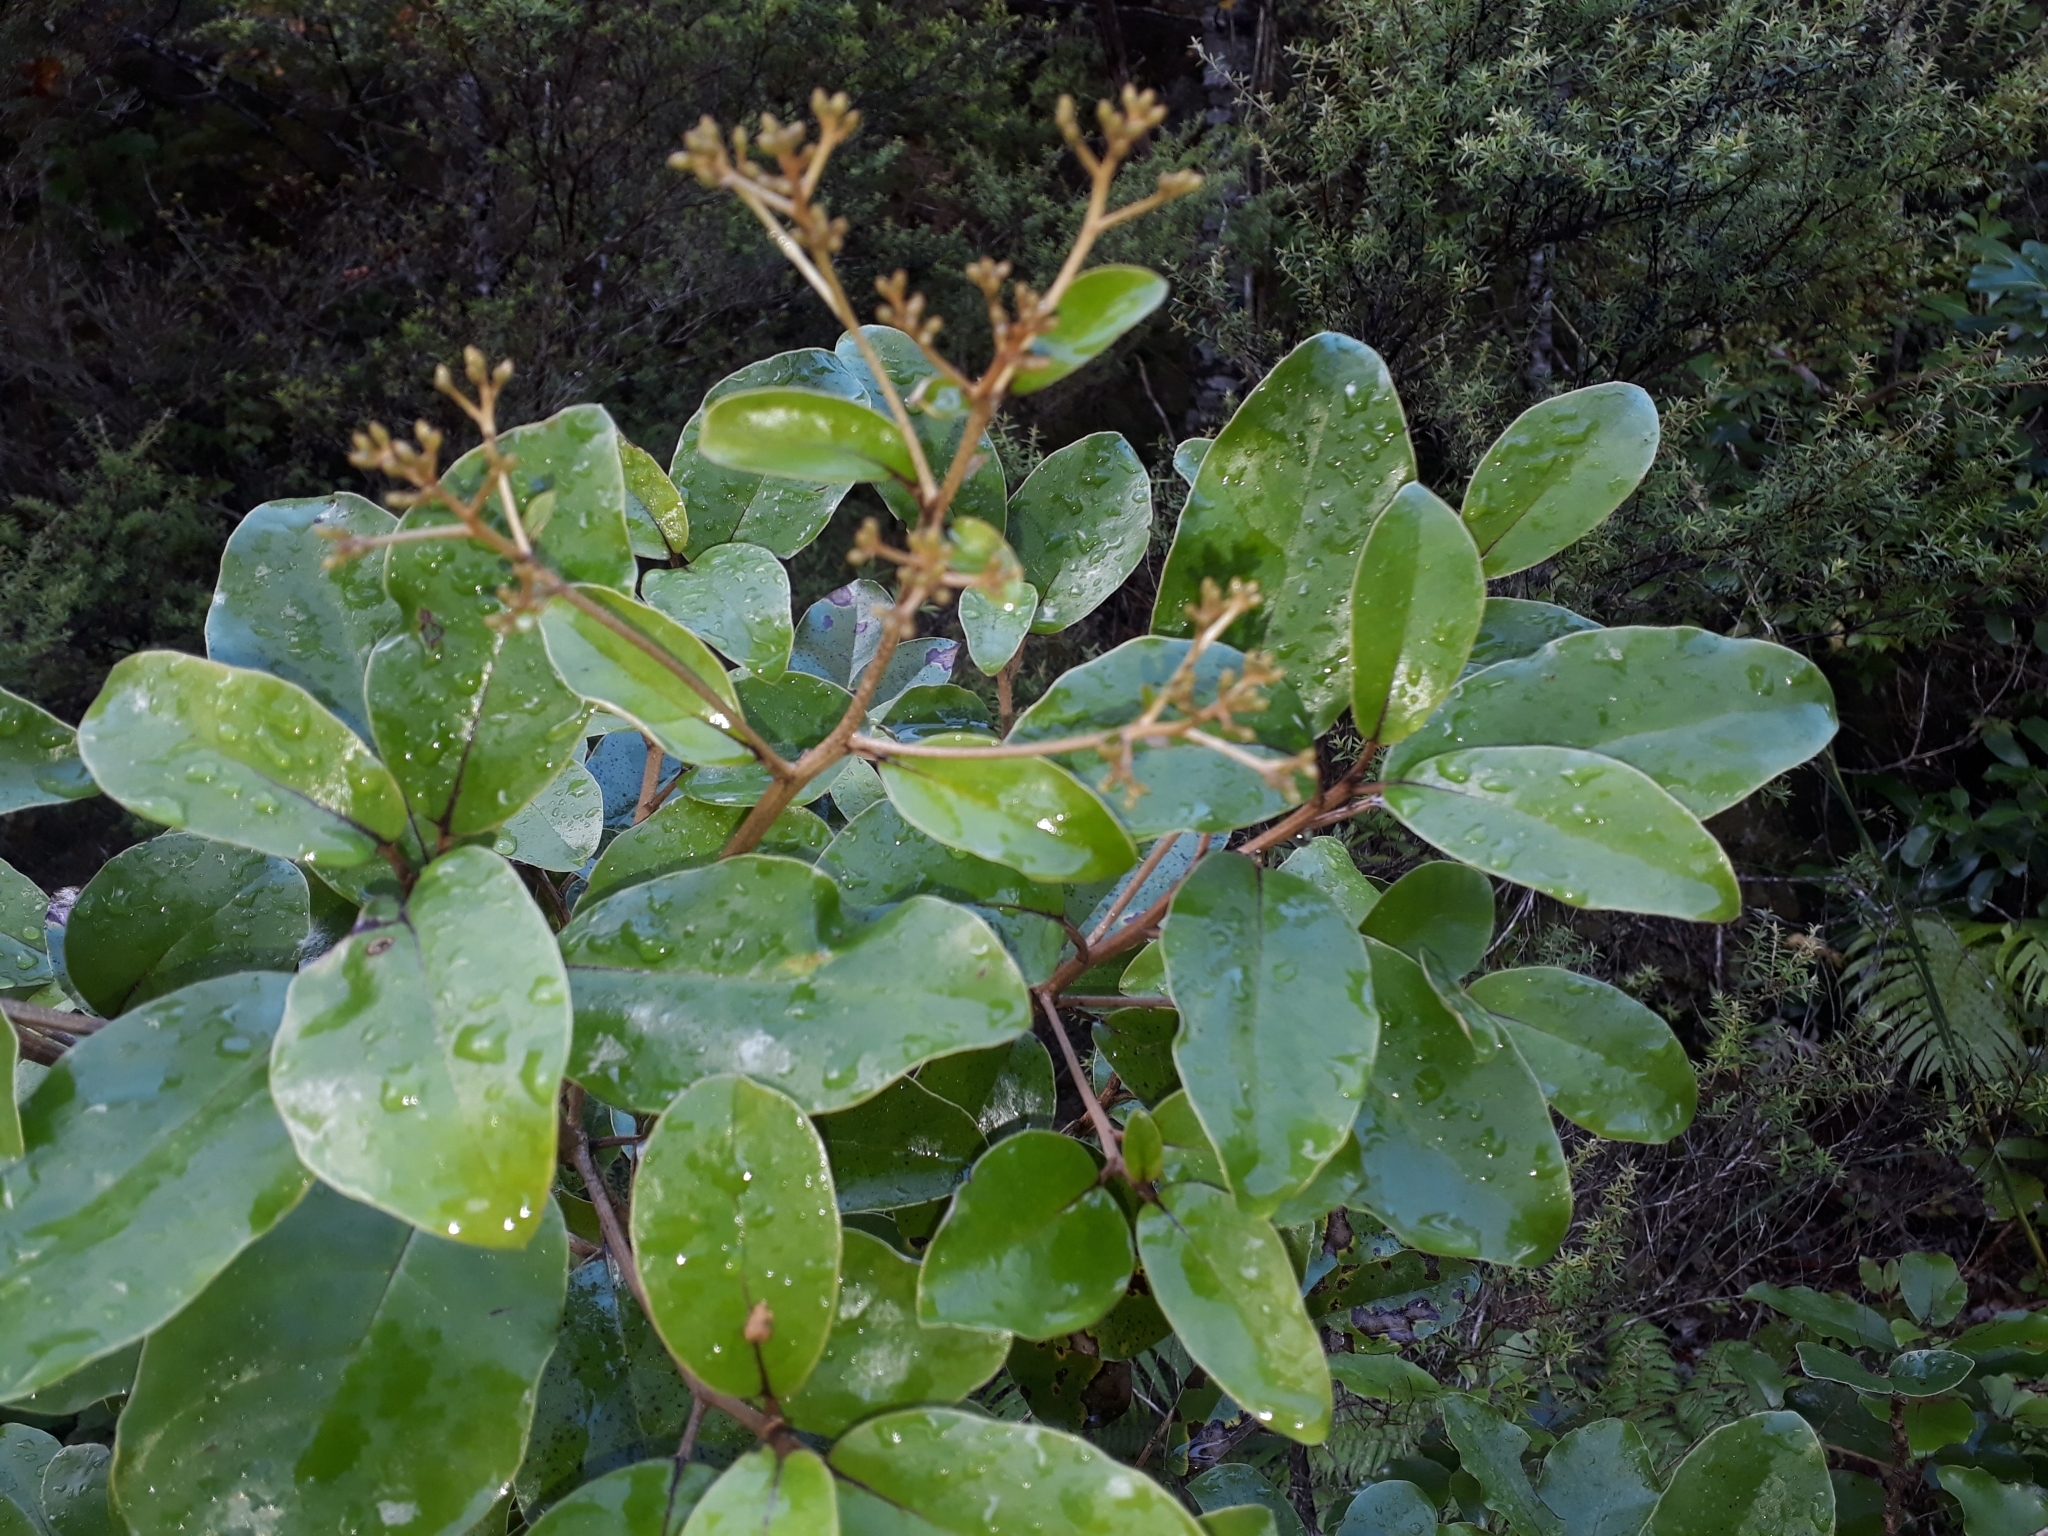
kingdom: Plantae
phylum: Tracheophyta
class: Magnoliopsida
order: Asterales
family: Asteraceae
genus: Olearia
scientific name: Olearia furfuracea
